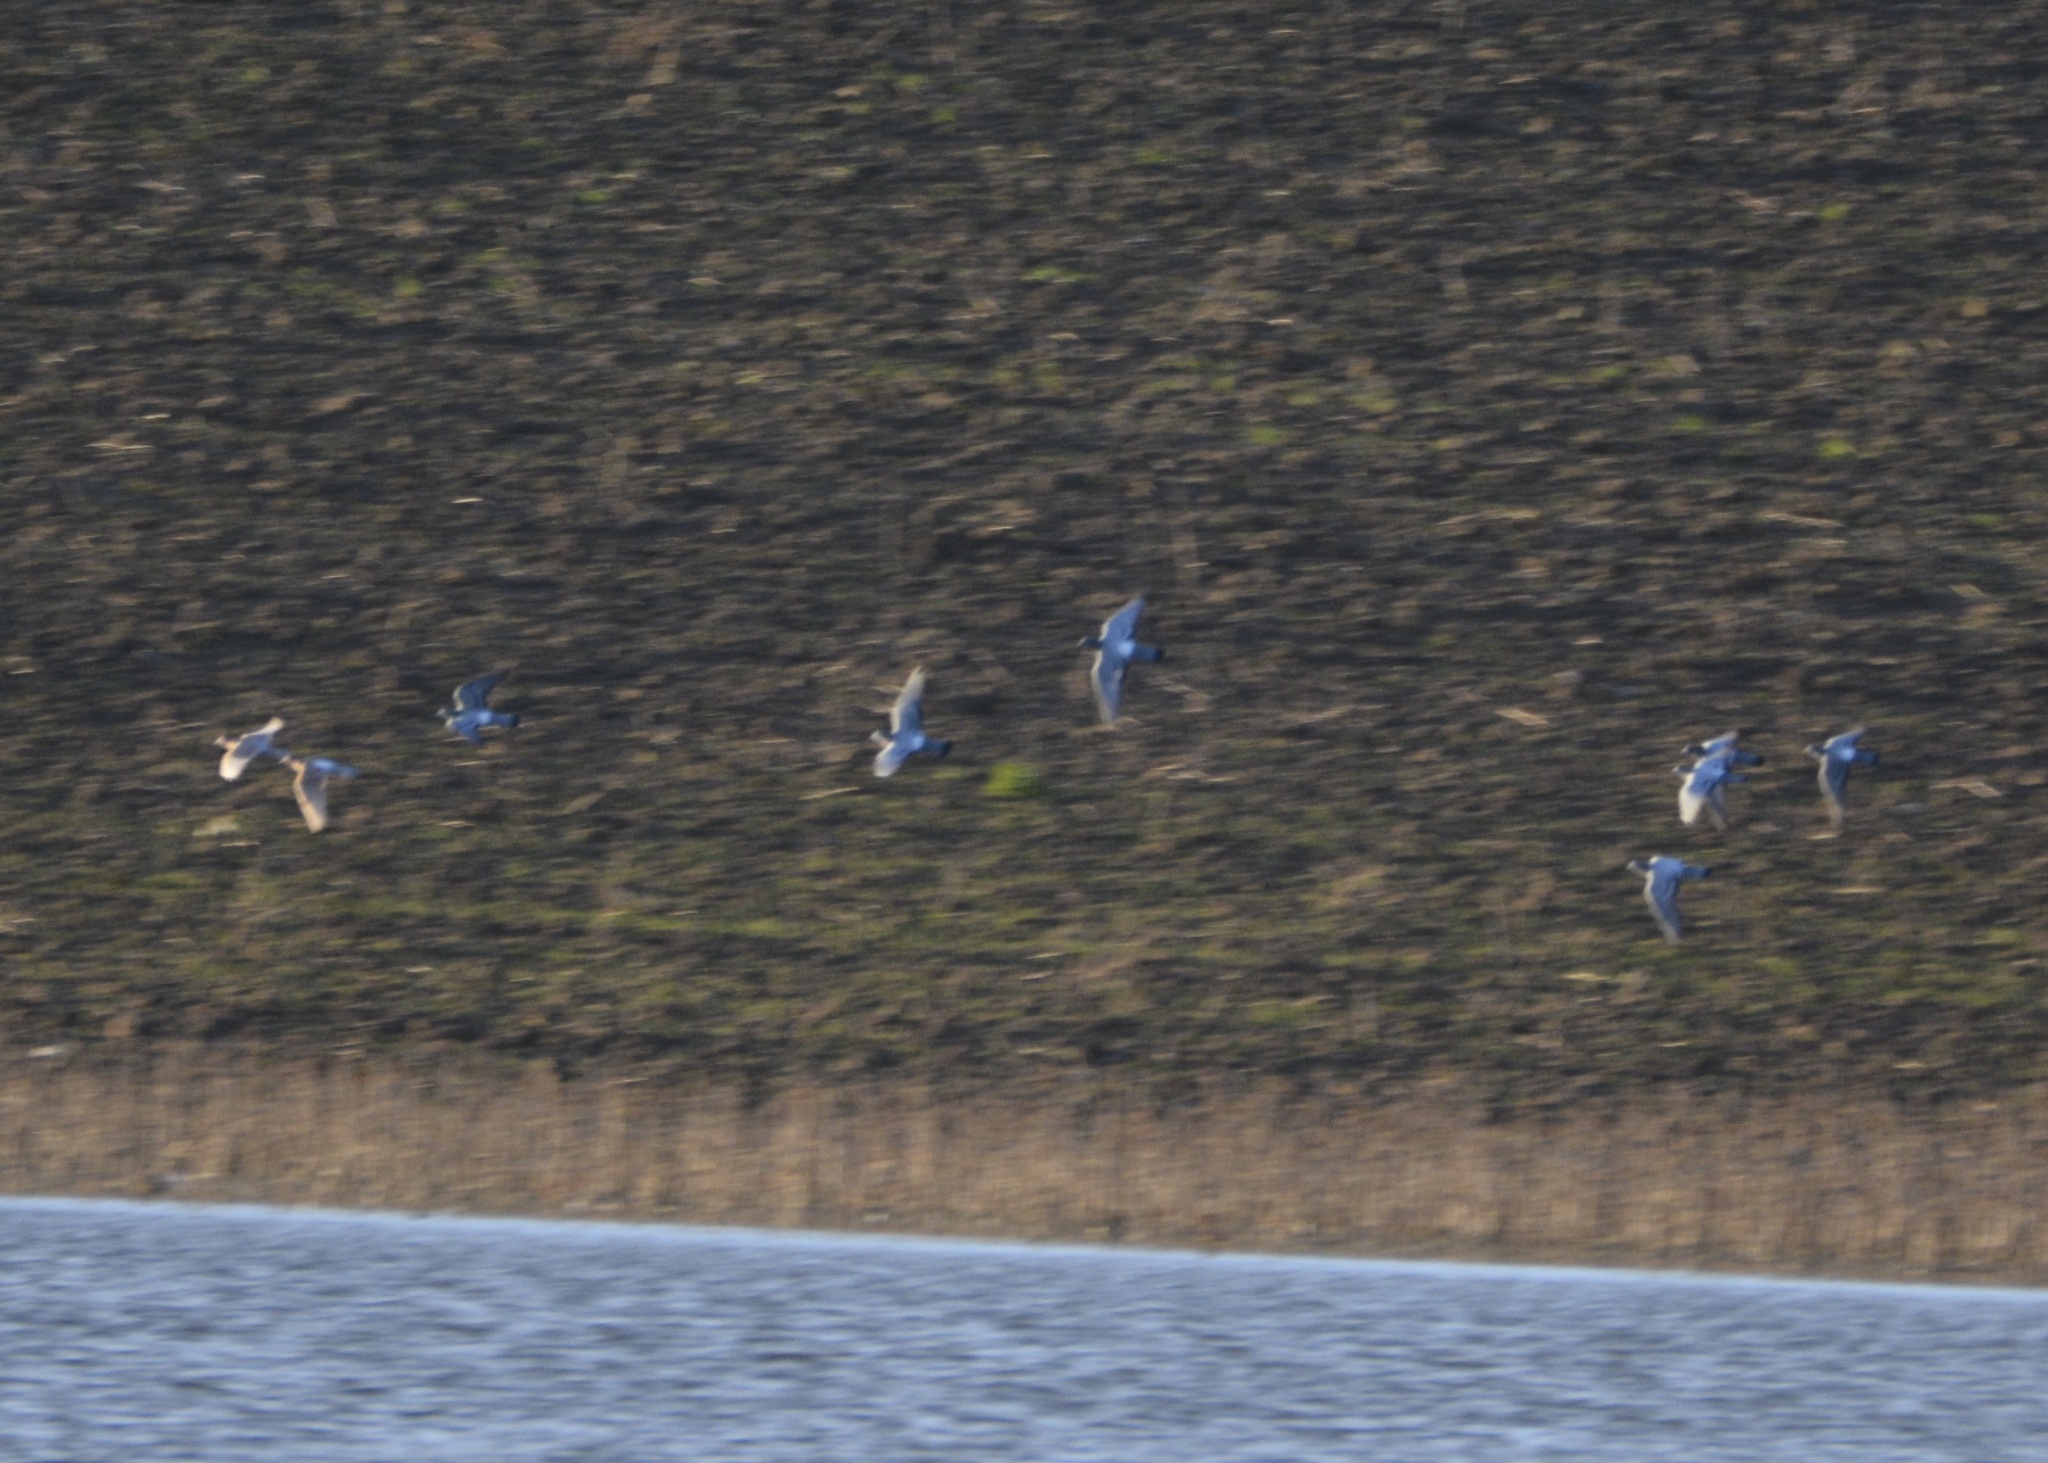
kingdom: Animalia
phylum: Chordata
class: Aves
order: Columbiformes
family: Columbidae
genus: Columba
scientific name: Columba livia
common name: Rock pigeon
